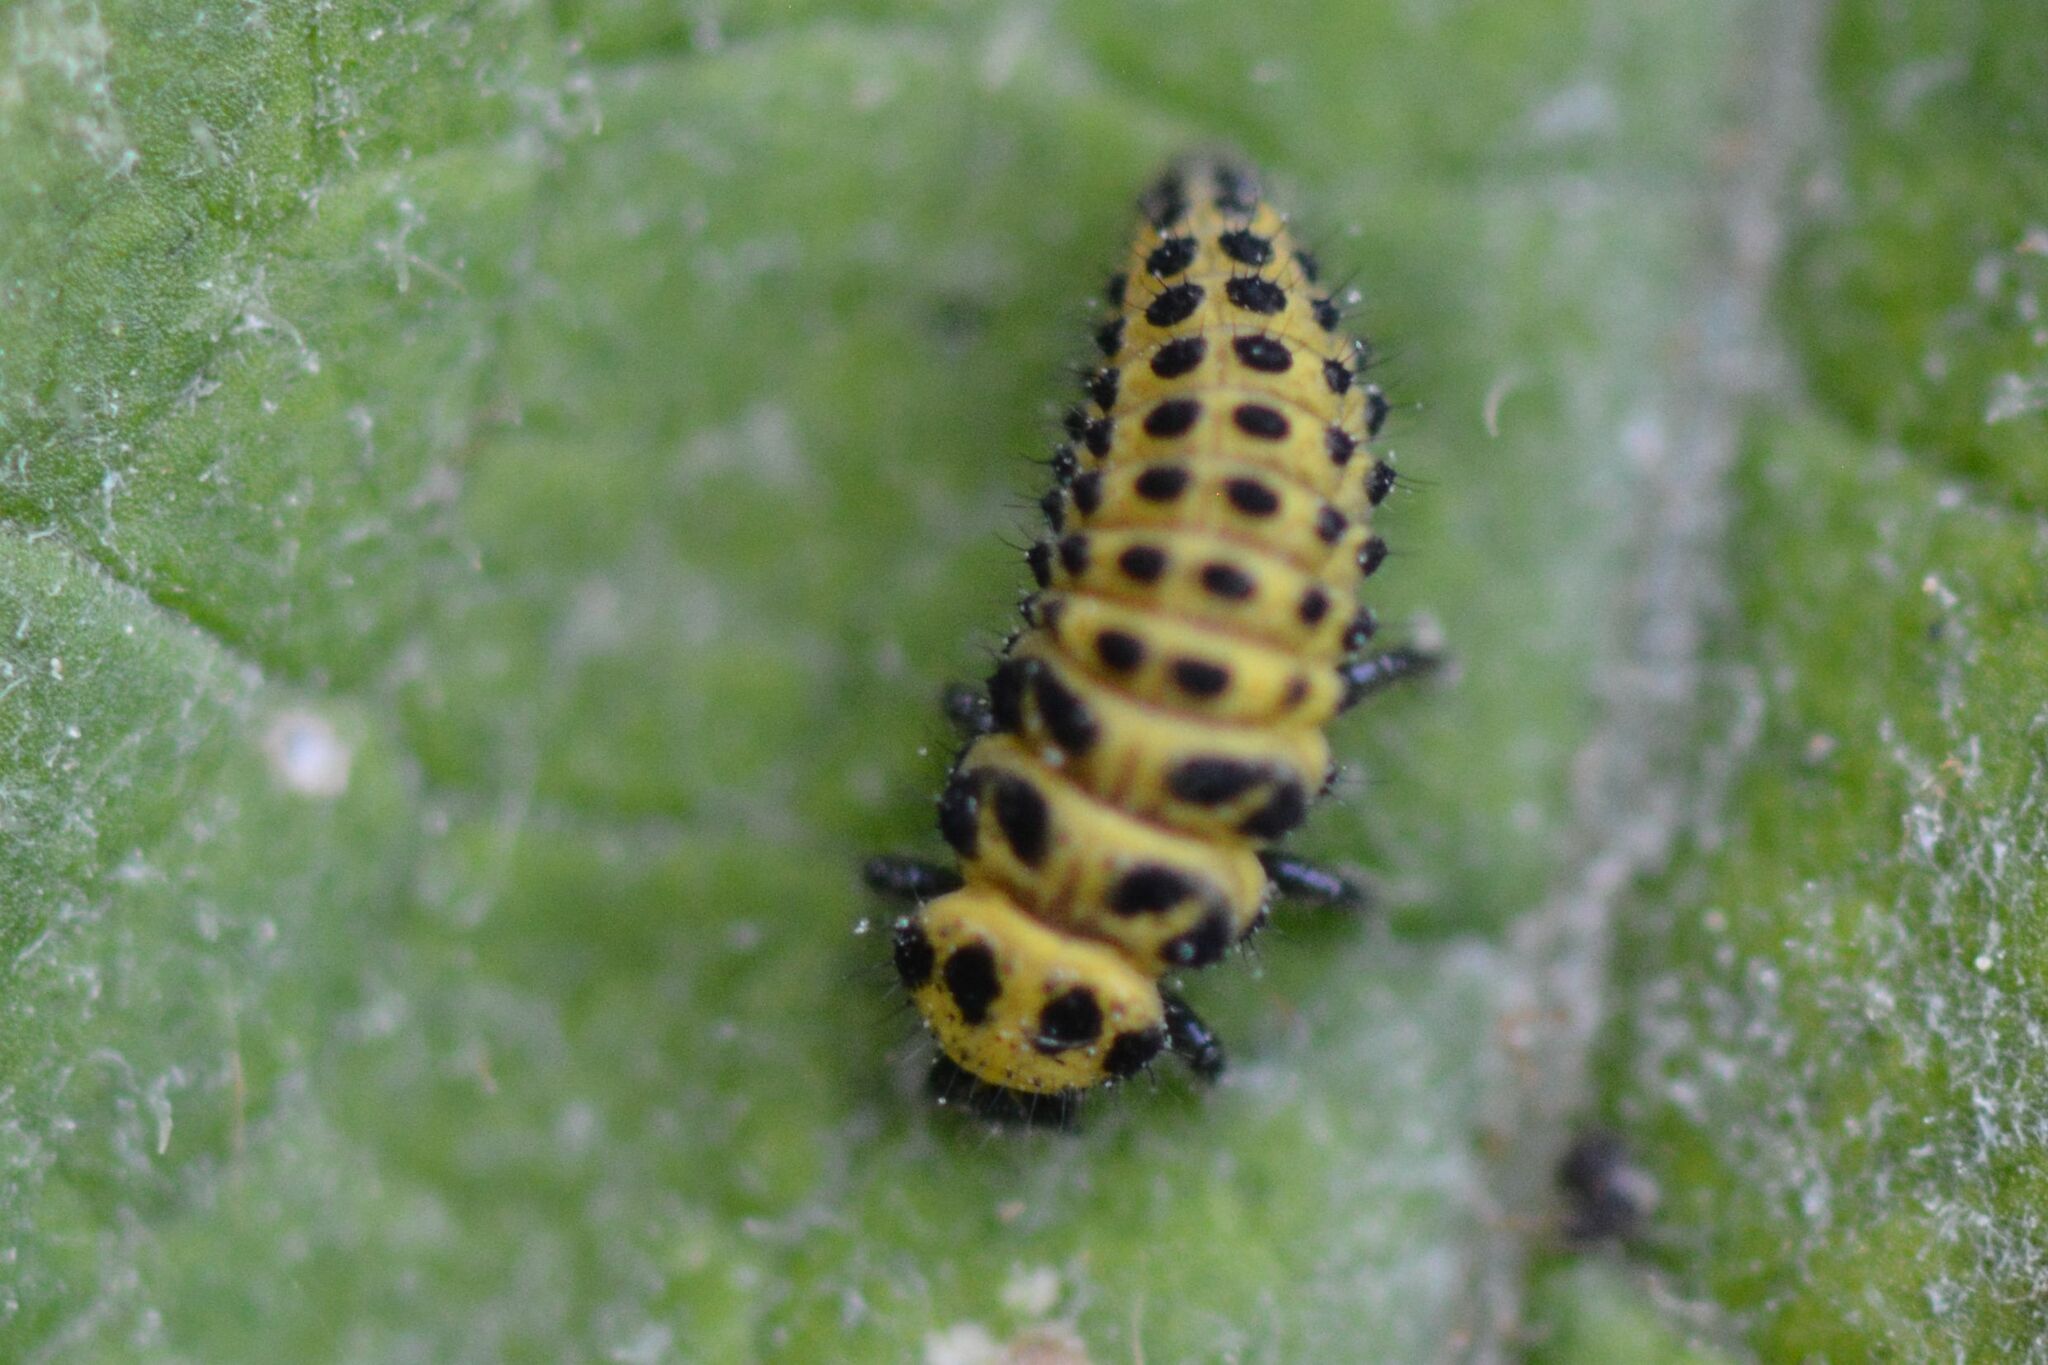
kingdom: Animalia
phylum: Arthropoda
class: Insecta
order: Coleoptera
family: Coccinellidae
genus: Psyllobora
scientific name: Psyllobora vigintiduopunctata
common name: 22-spot ladybird
